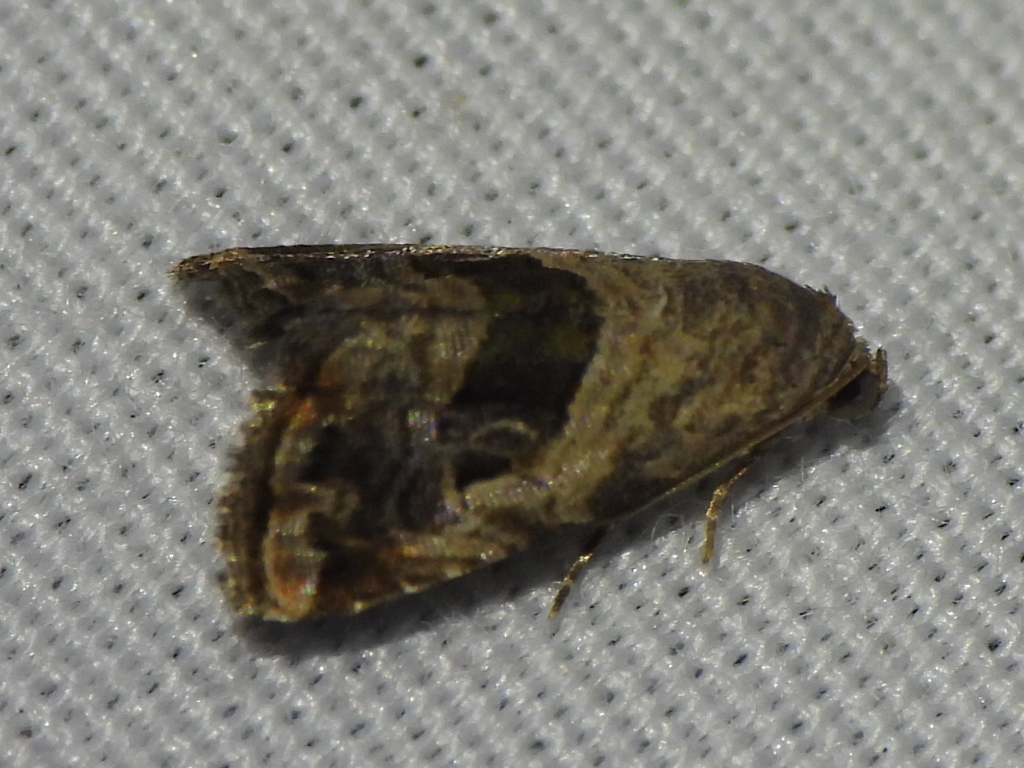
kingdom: Animalia
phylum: Arthropoda
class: Insecta
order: Lepidoptera
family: Noctuidae
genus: Tripudia
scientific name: Tripudia quadrifera
